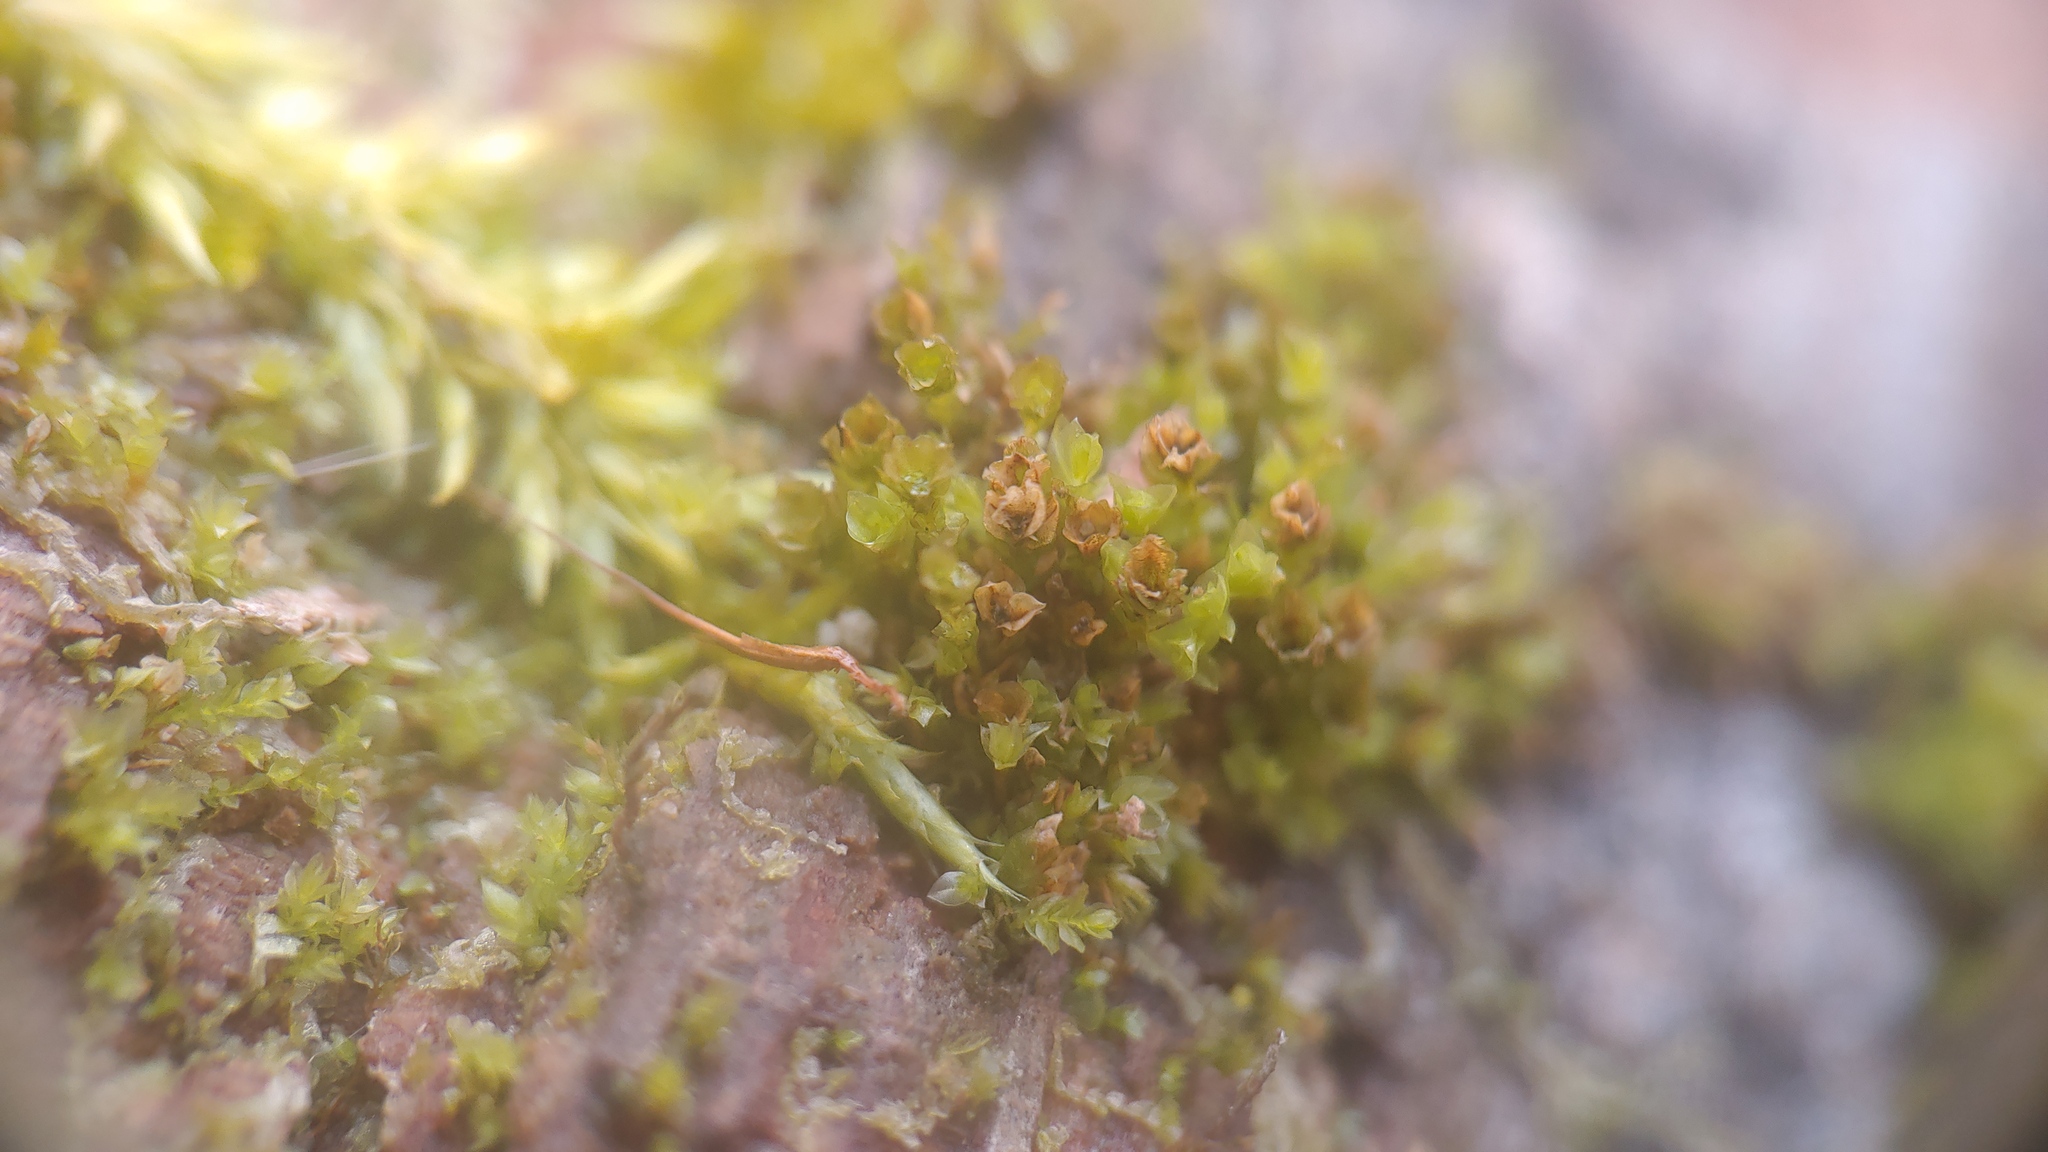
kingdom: Plantae
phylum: Bryophyta
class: Polytrichopsida
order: Tetraphidales
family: Tetraphidaceae
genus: Tetraphis
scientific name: Tetraphis pellucida
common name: Common four-toothed moss
